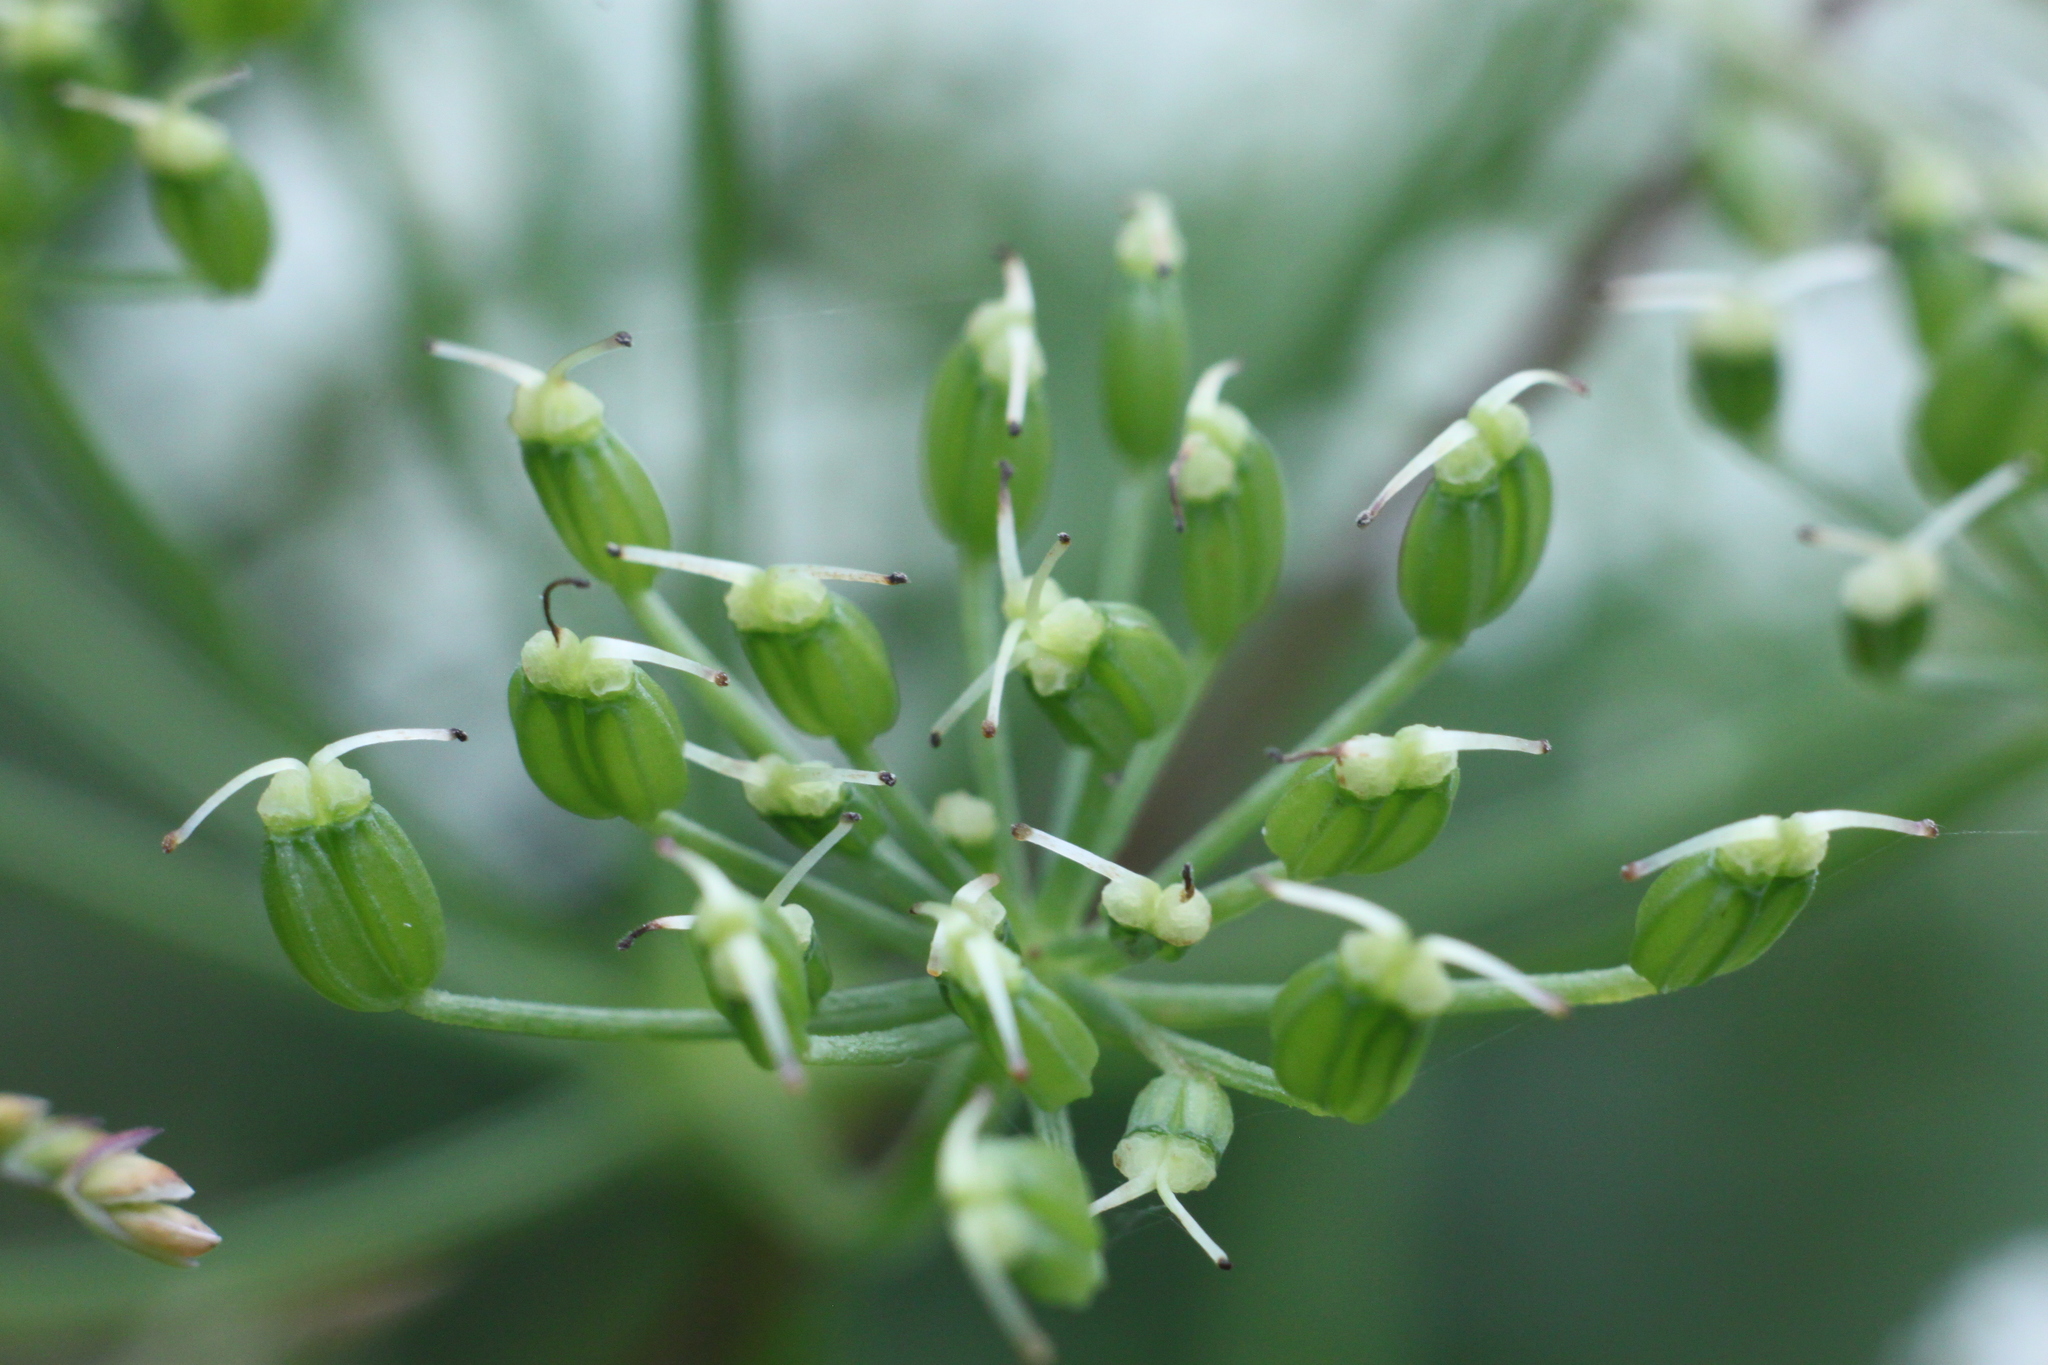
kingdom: Plantae
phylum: Tracheophyta
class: Magnoliopsida
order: Apiales
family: Apiaceae
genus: Aegopodium
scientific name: Aegopodium podagraria
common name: Ground-elder
